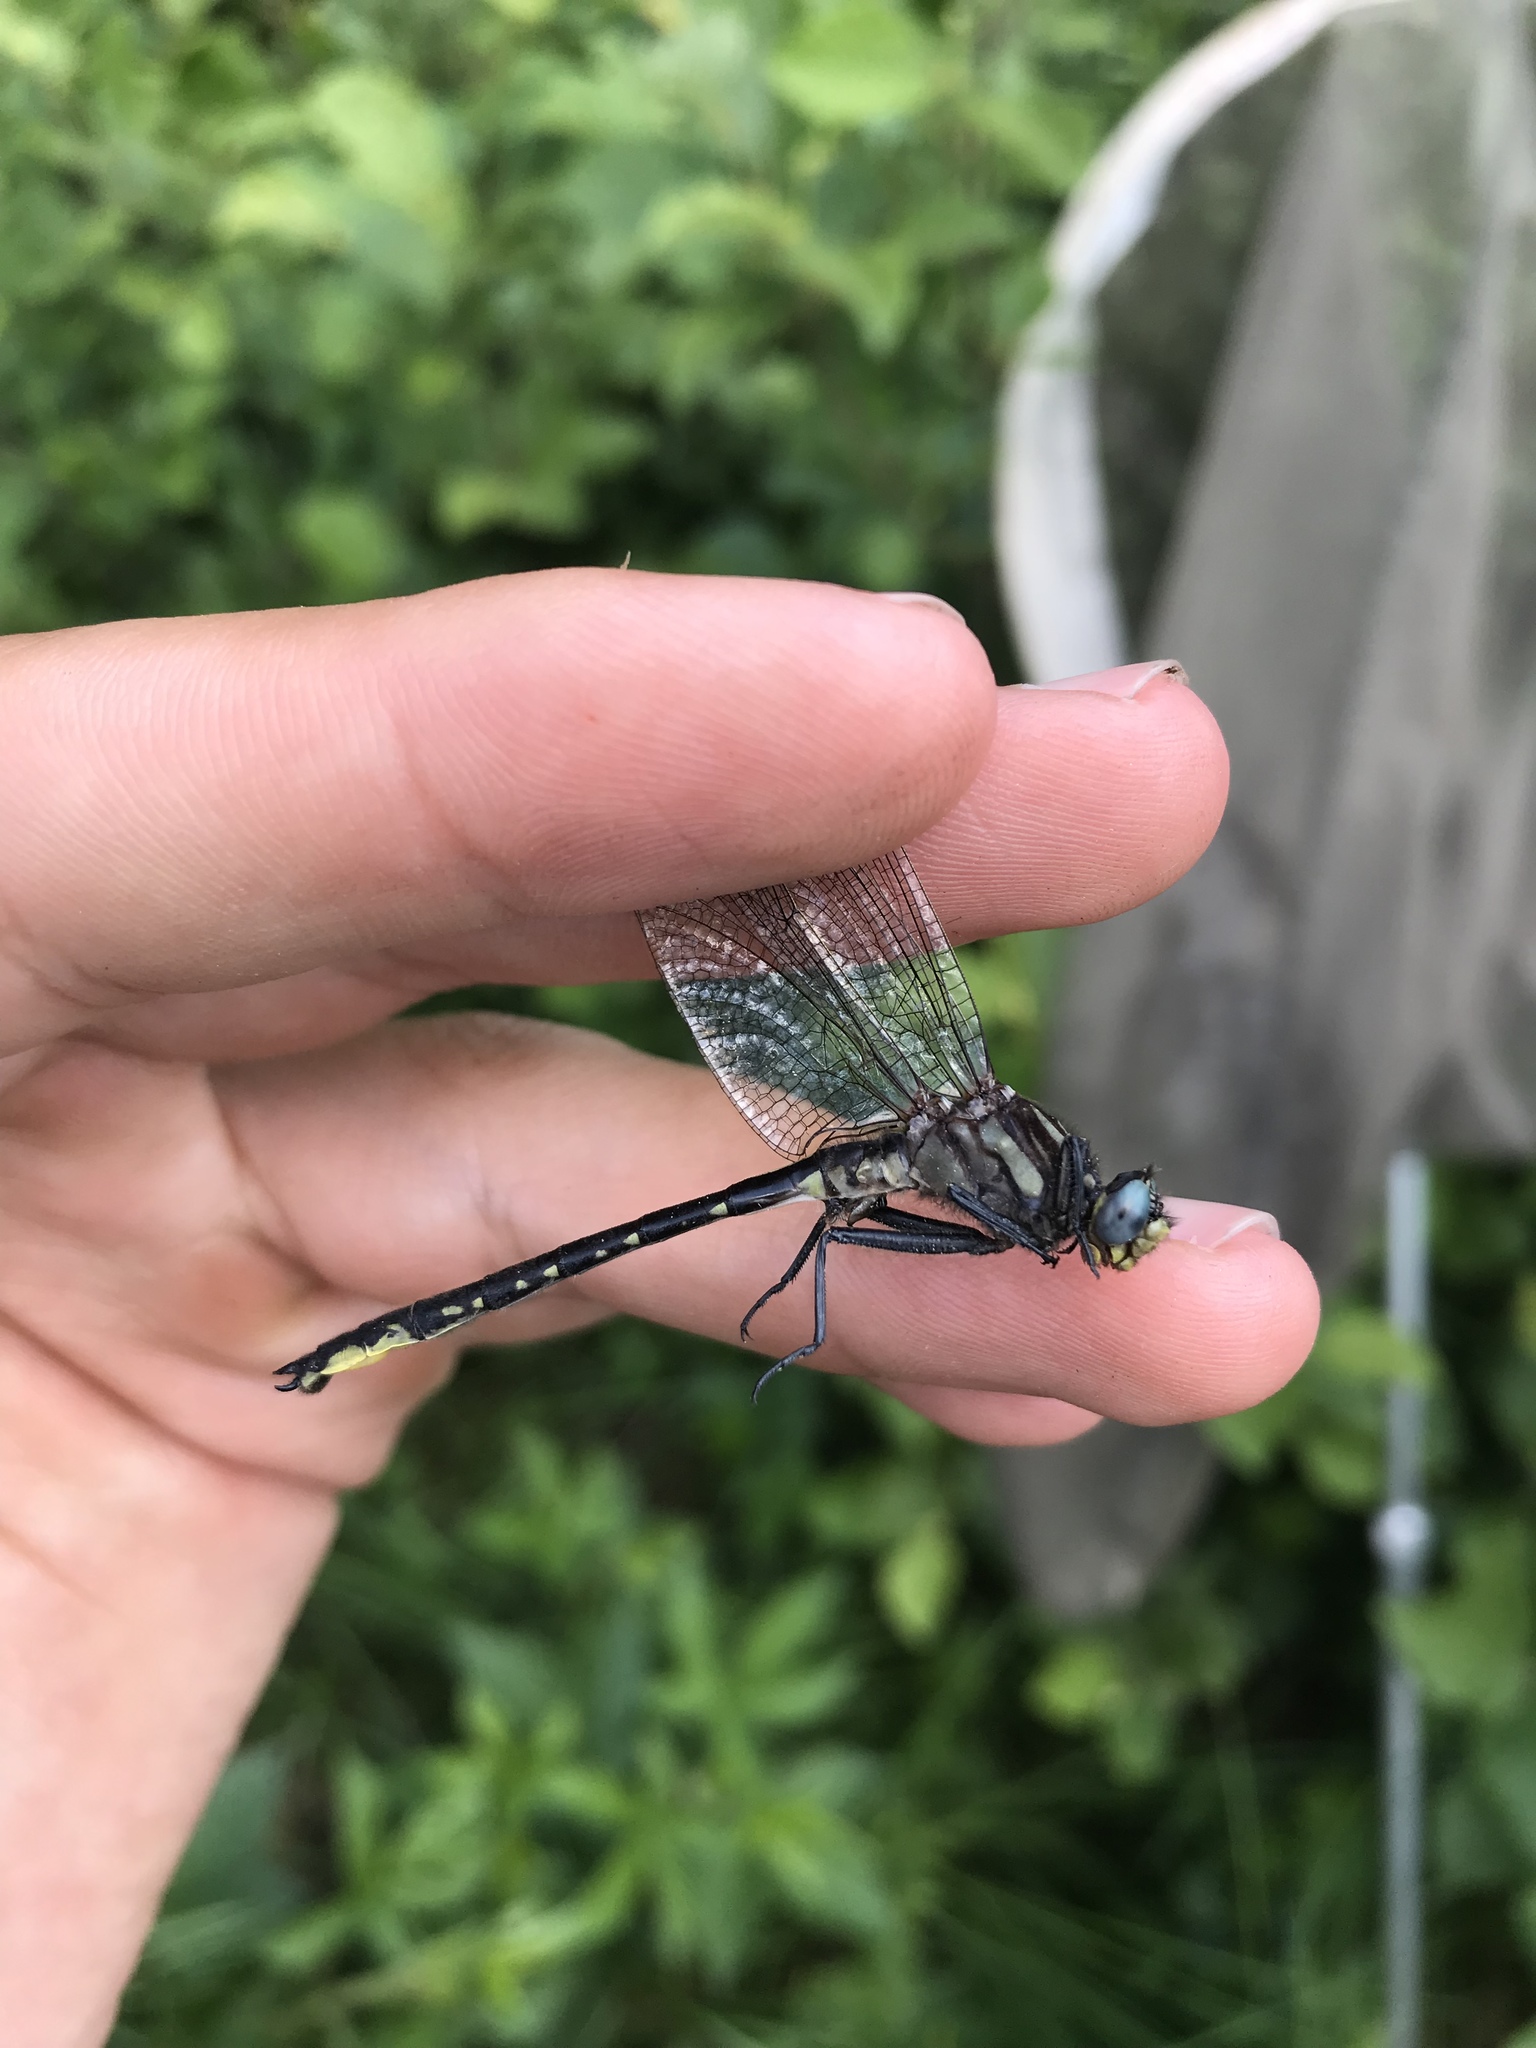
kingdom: Animalia
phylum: Arthropoda
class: Insecta
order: Odonata
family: Gomphidae
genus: Phanogomphus
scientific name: Phanogomphus borealis
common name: Beaverpond clubtail
